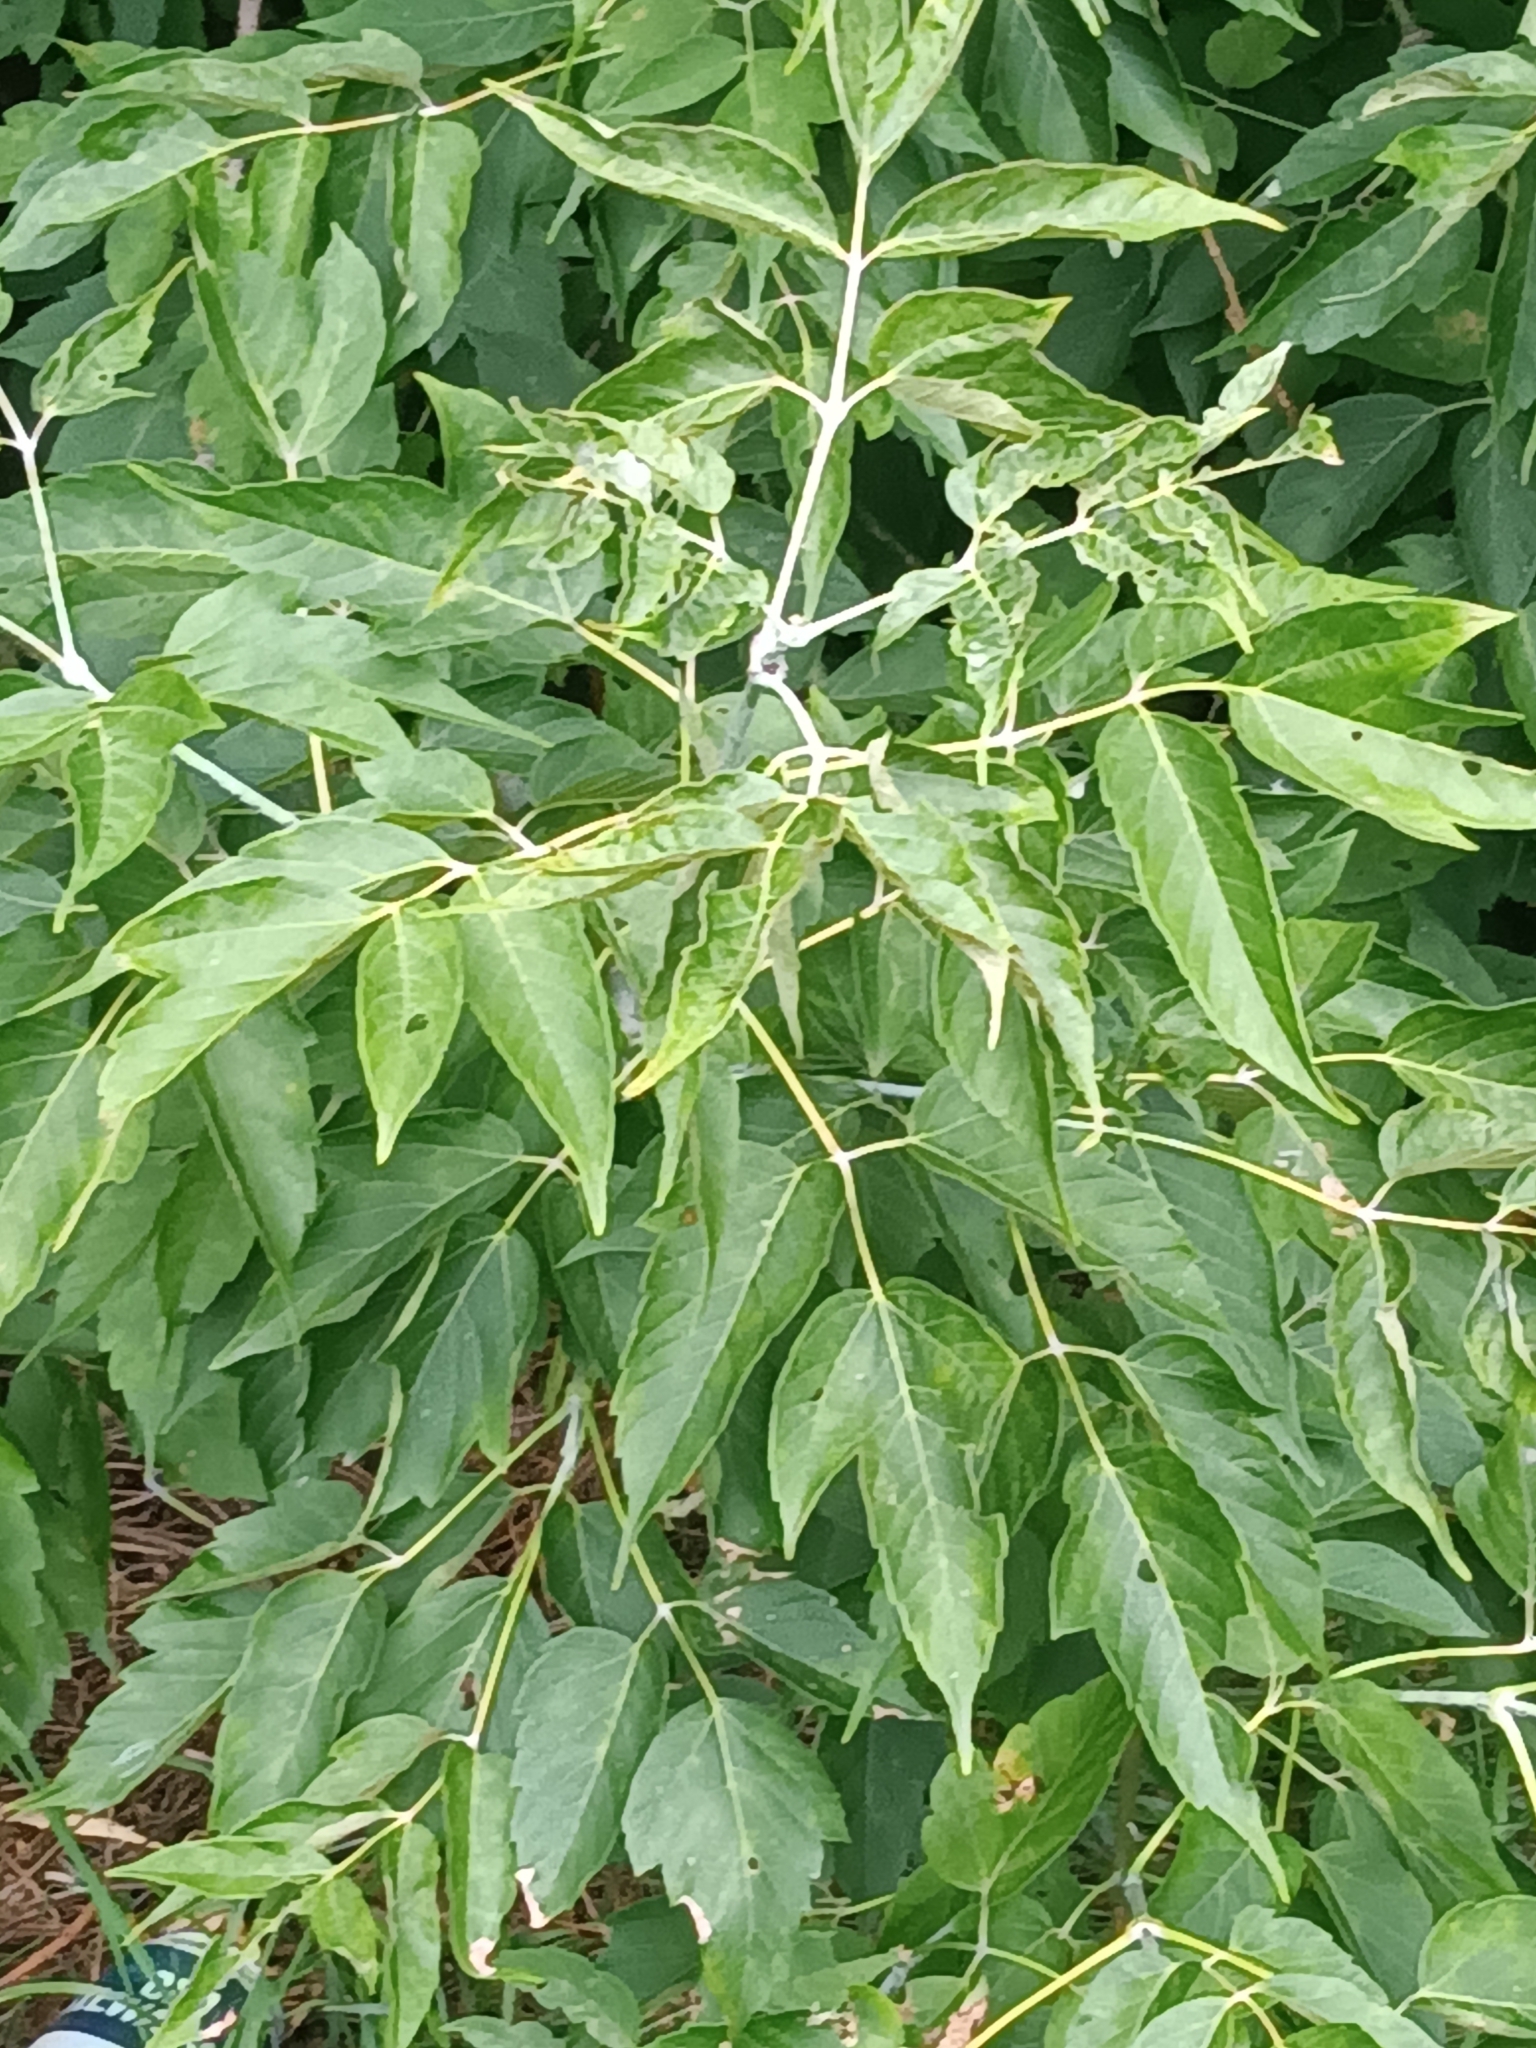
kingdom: Plantae
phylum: Tracheophyta
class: Magnoliopsida
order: Sapindales
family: Sapindaceae
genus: Acer
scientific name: Acer negundo
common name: Ashleaf maple
